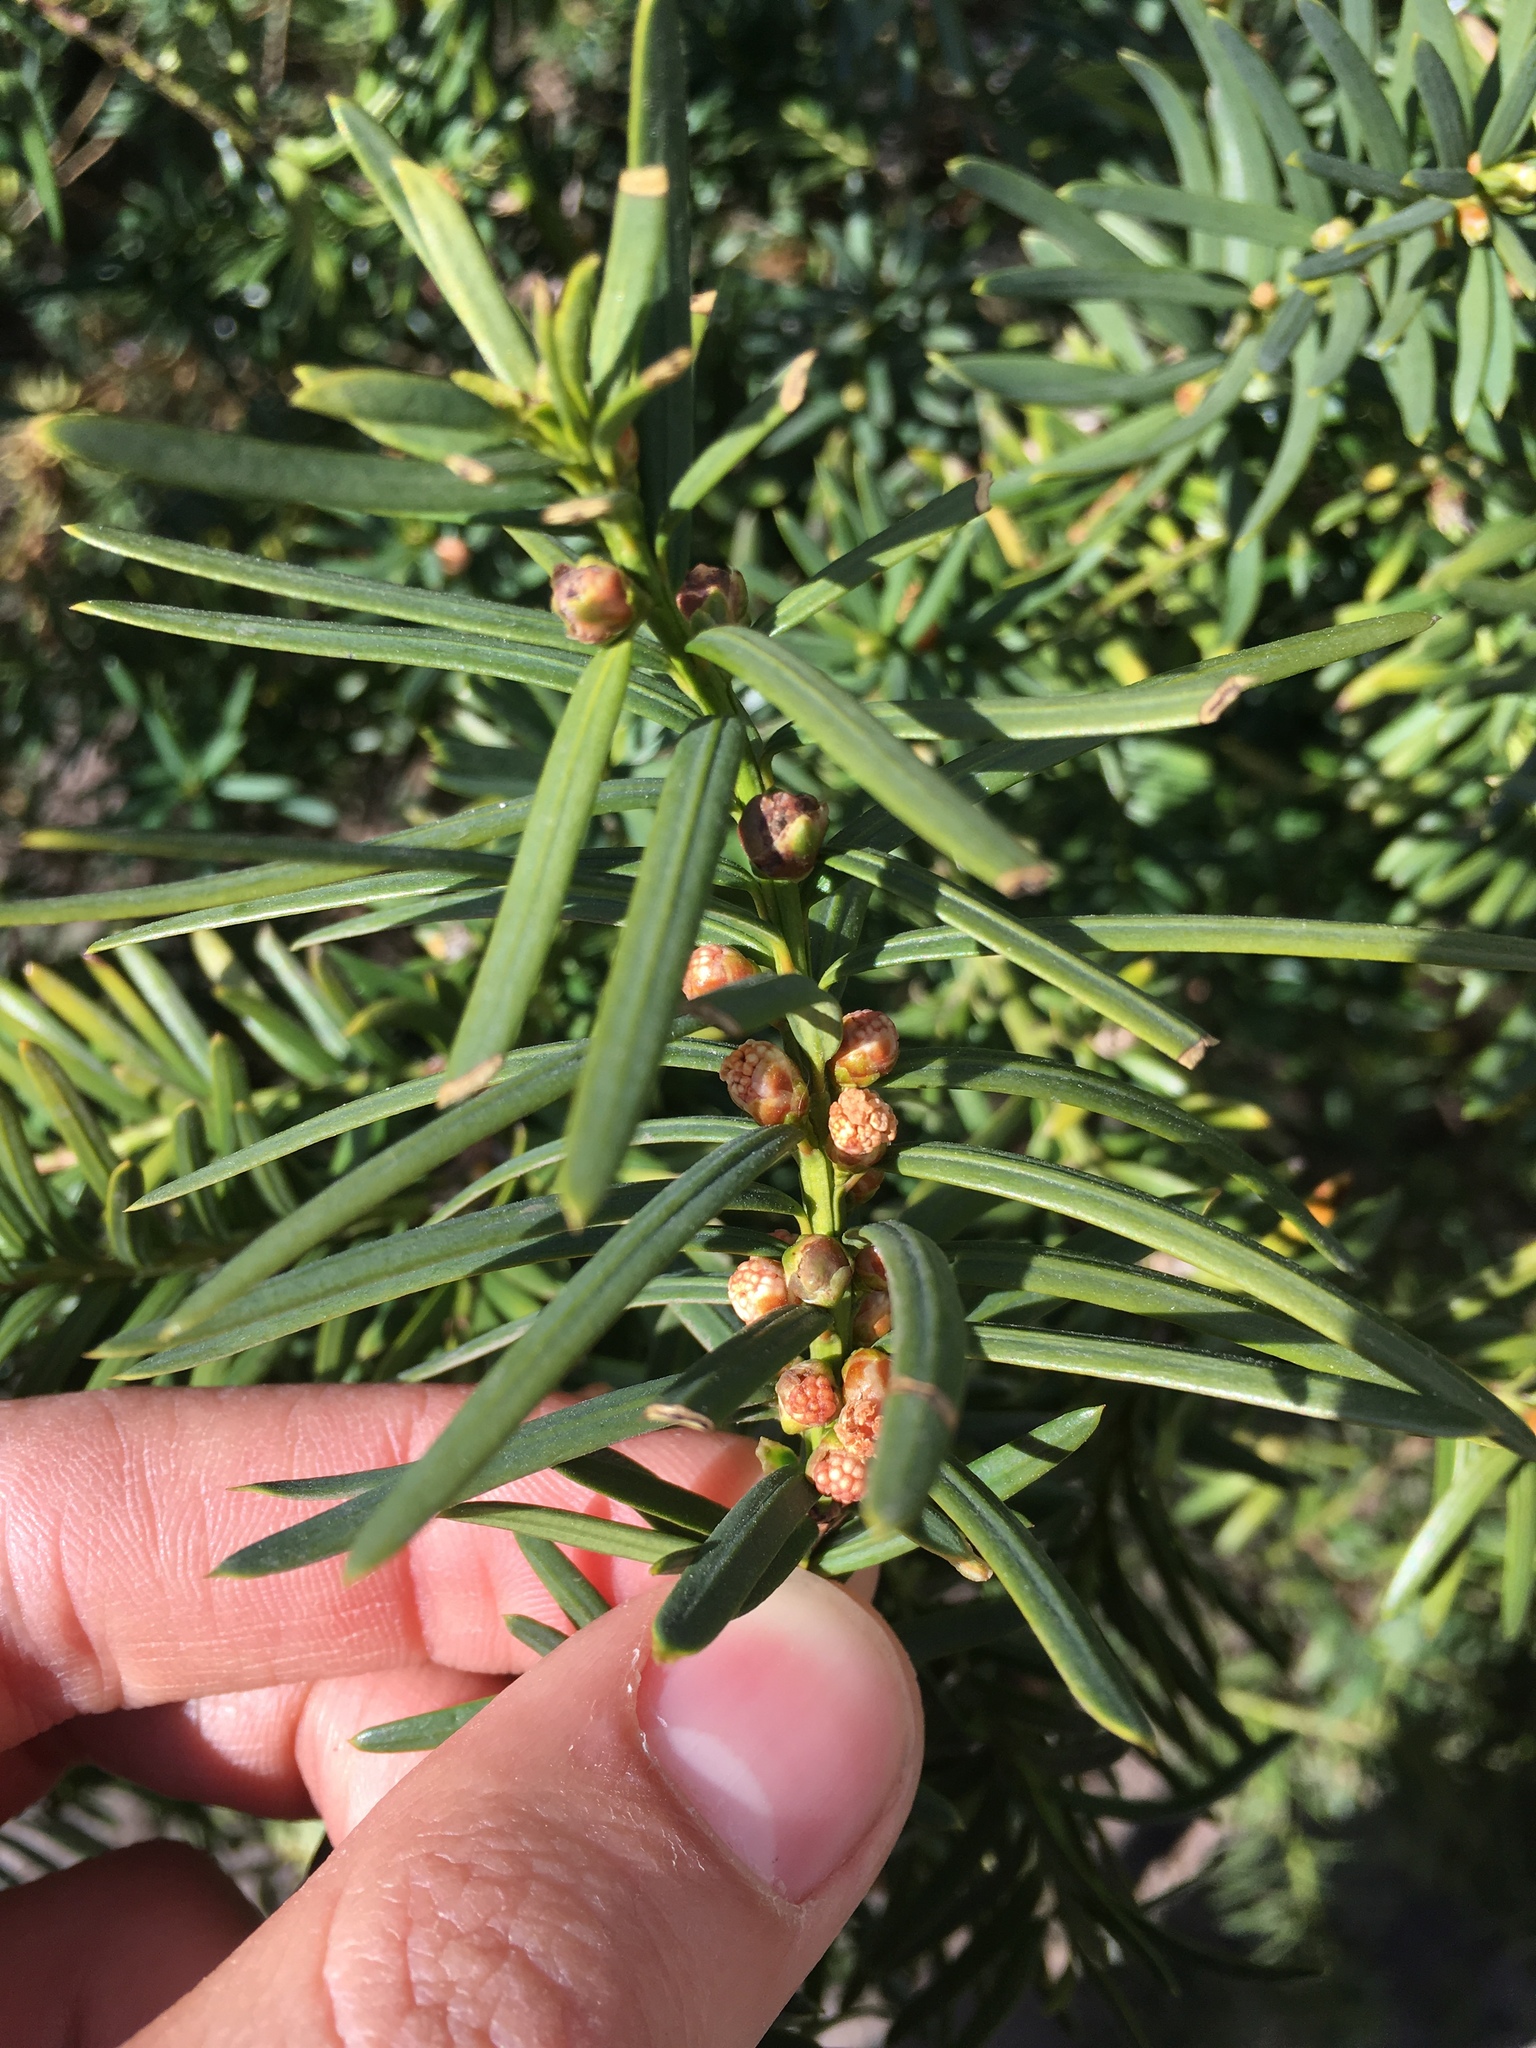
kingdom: Plantae
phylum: Tracheophyta
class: Pinopsida
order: Pinales
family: Taxaceae
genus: Taxus
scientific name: Taxus baccata
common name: Yew
